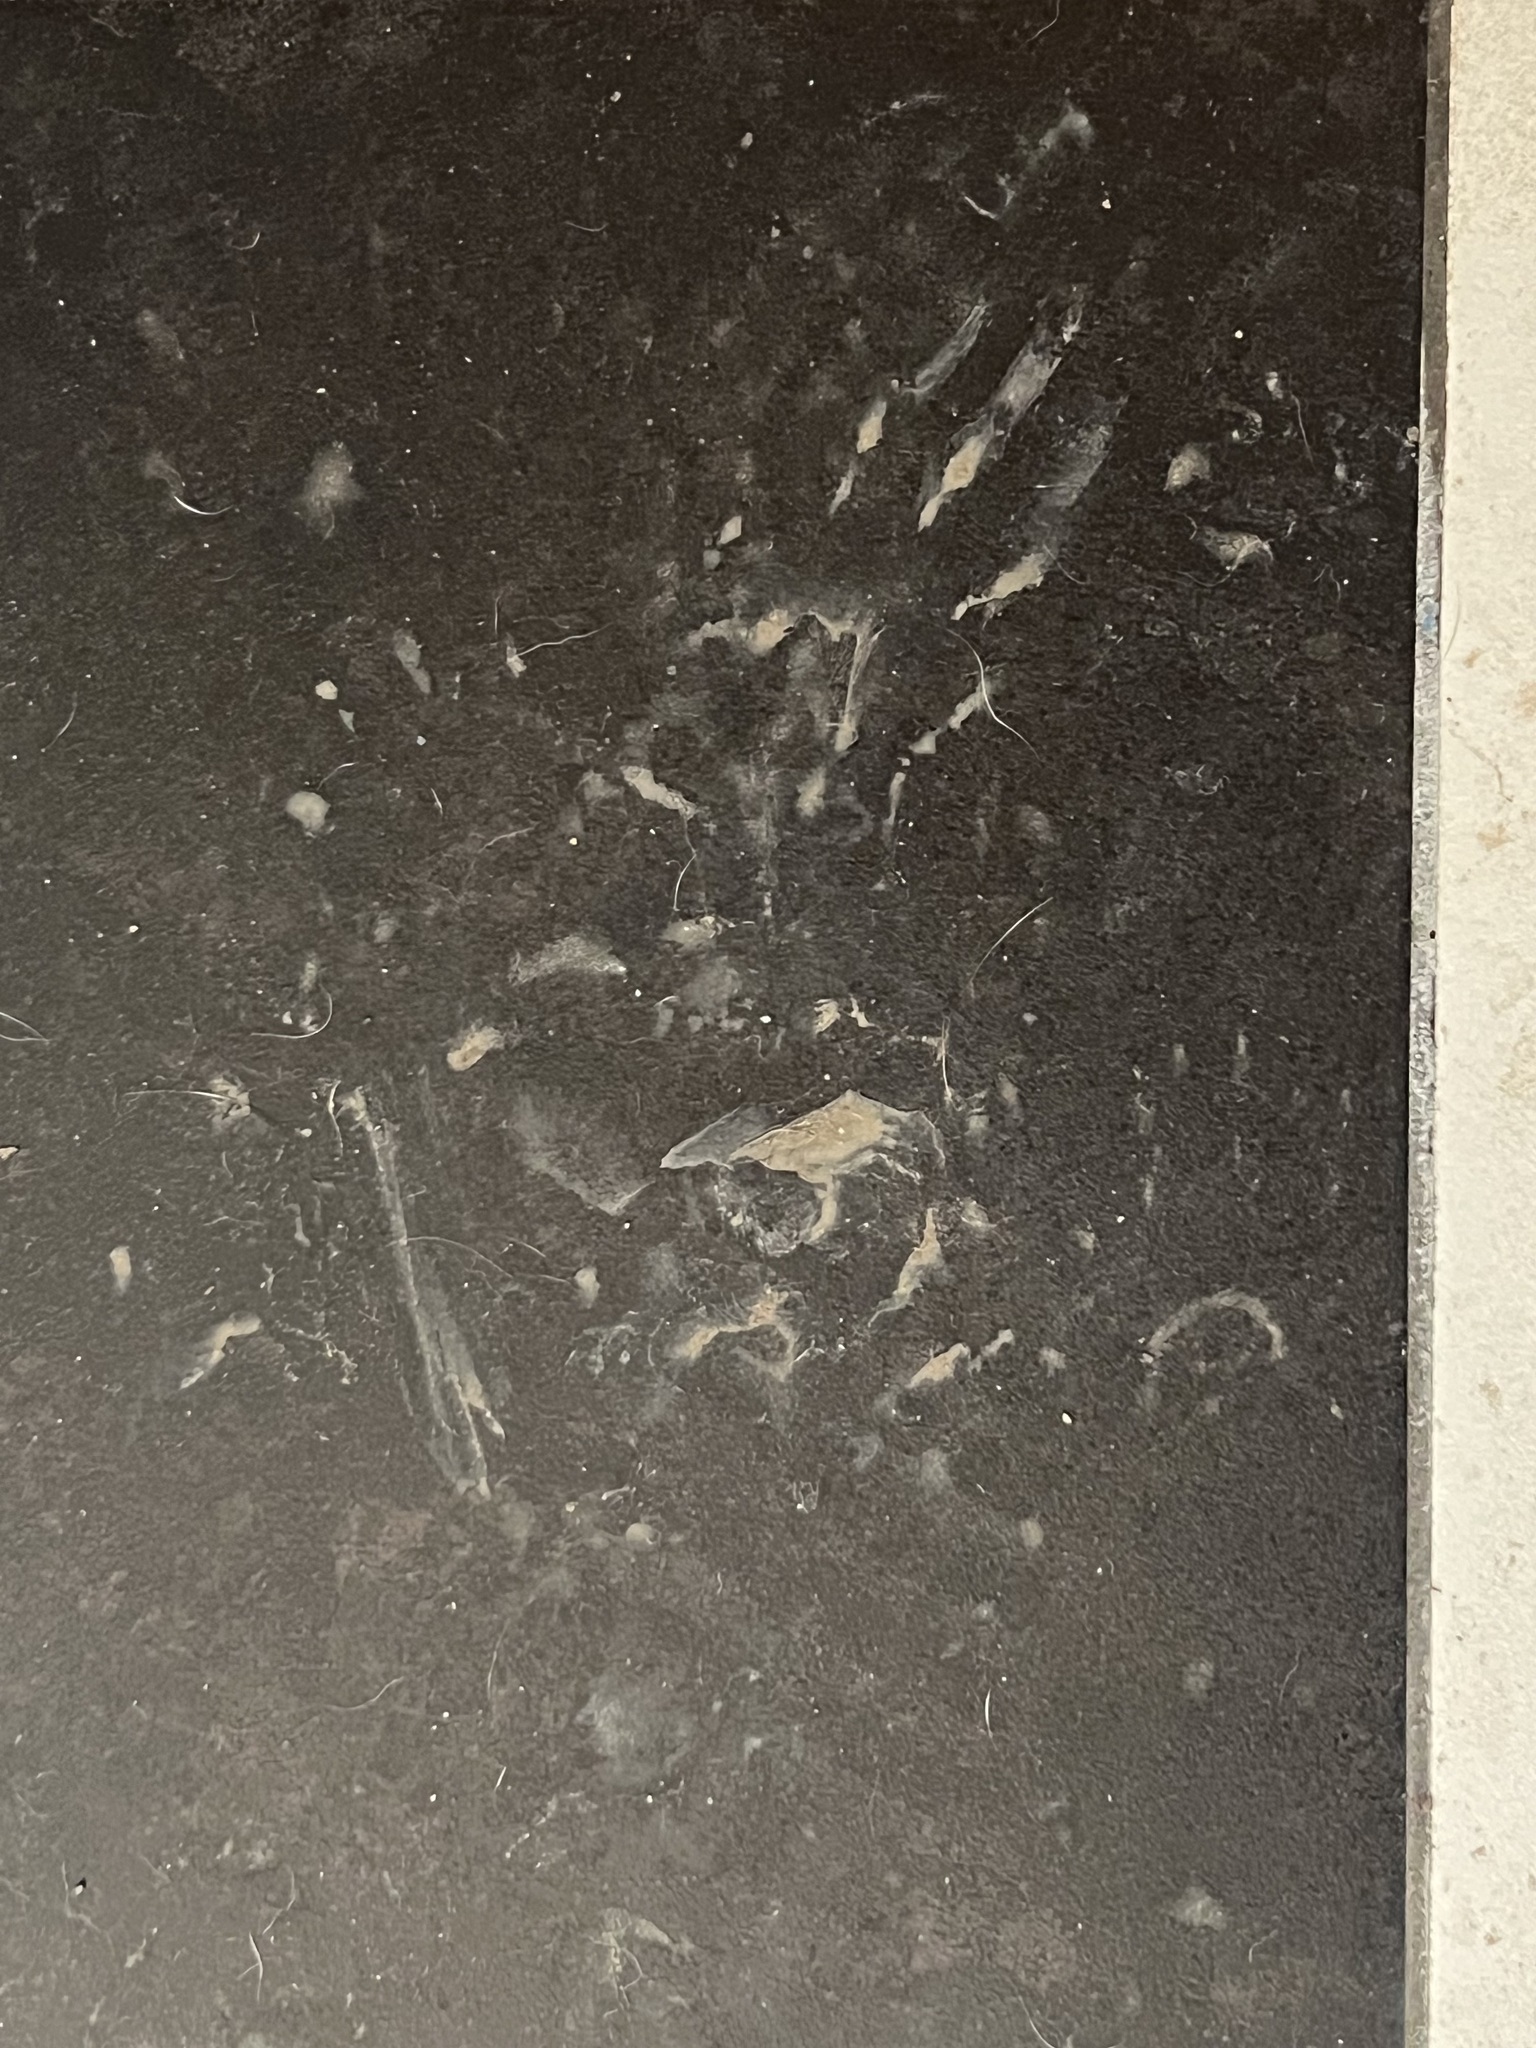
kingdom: Animalia
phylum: Chordata
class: Mammalia
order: Carnivora
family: Procyonidae
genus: Procyon
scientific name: Procyon lotor
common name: Raccoon
